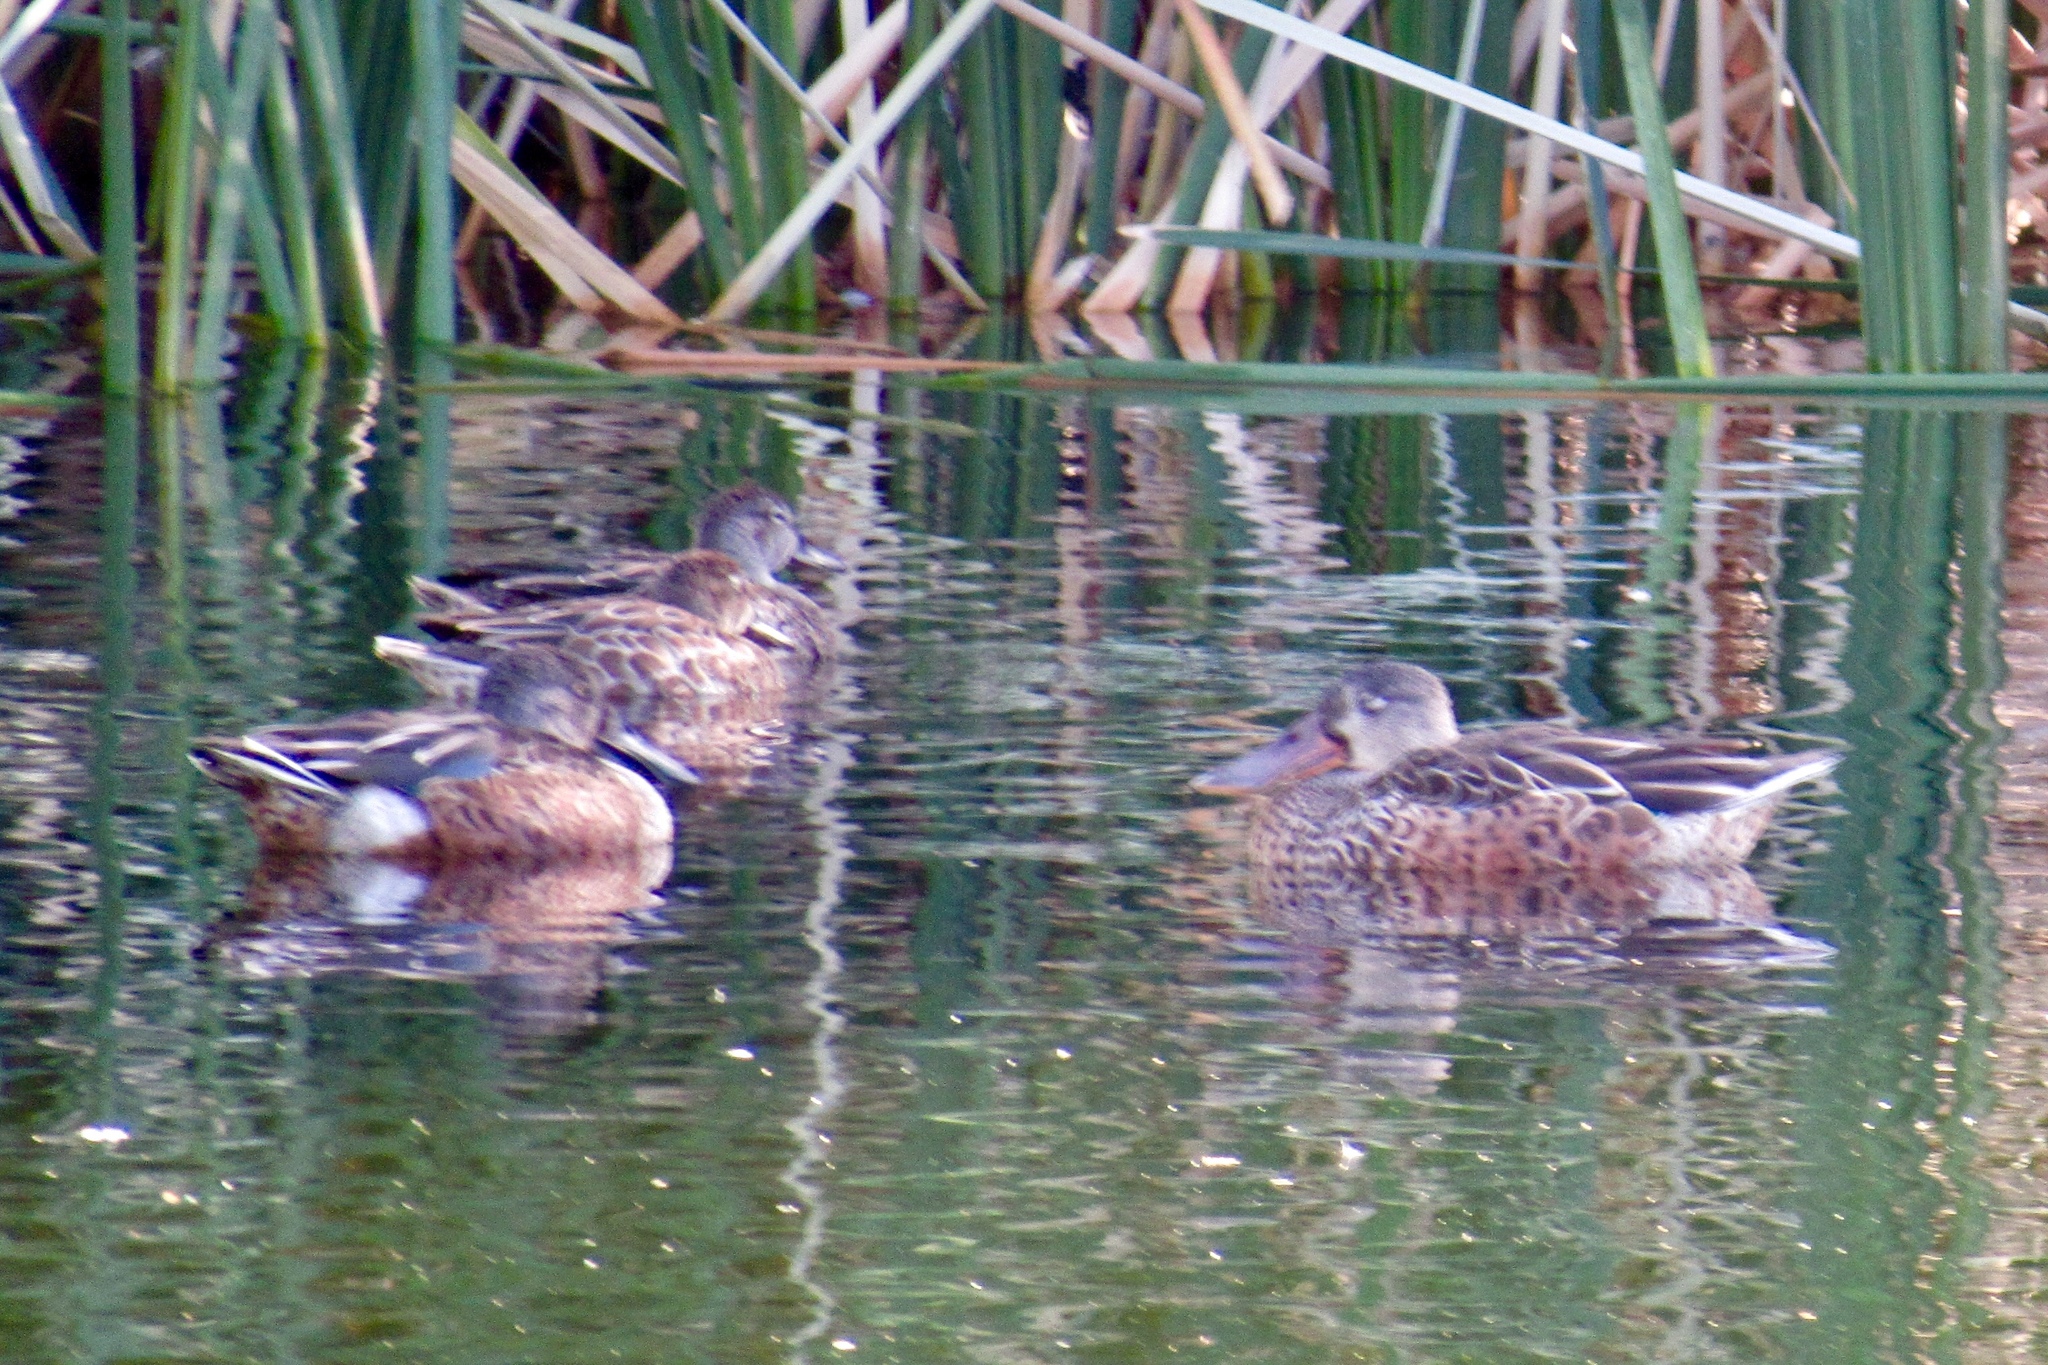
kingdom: Animalia
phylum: Chordata
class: Aves
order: Anseriformes
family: Anatidae
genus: Spatula
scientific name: Spatula clypeata
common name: Northern shoveler
